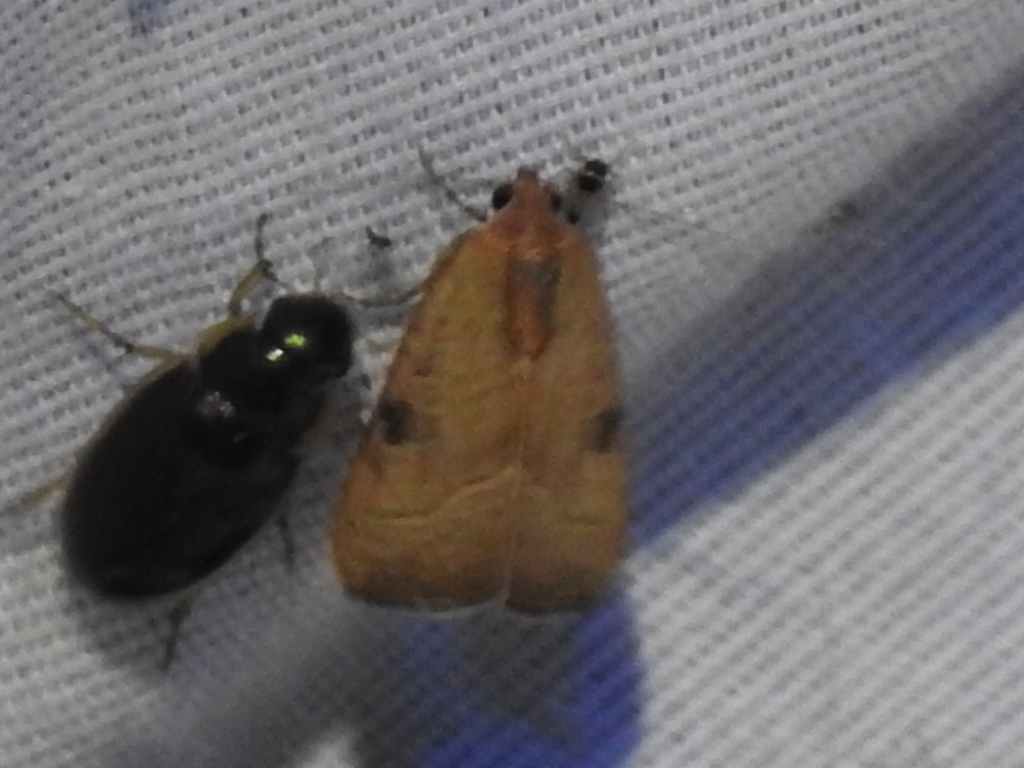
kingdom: Animalia
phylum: Arthropoda
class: Insecta
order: Lepidoptera
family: Noctuidae
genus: Galgula
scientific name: Galgula partita
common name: Wedgeling
